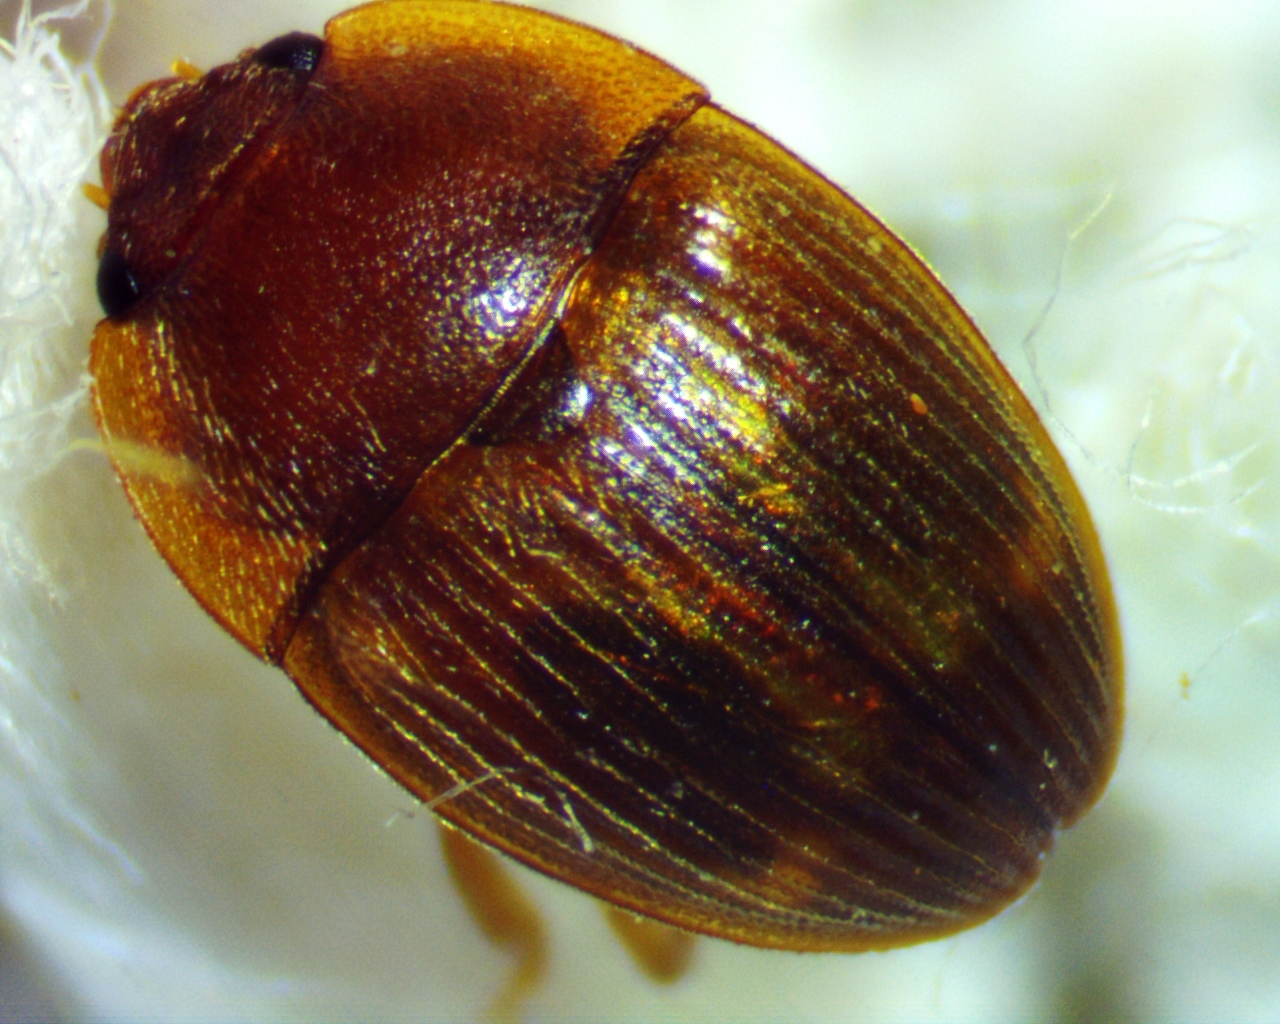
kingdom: Animalia
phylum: Arthropoda
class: Insecta
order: Coleoptera
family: Nitidulidae
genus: Stelidota
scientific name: Stelidota geminata
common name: Strawberry sap beetle
